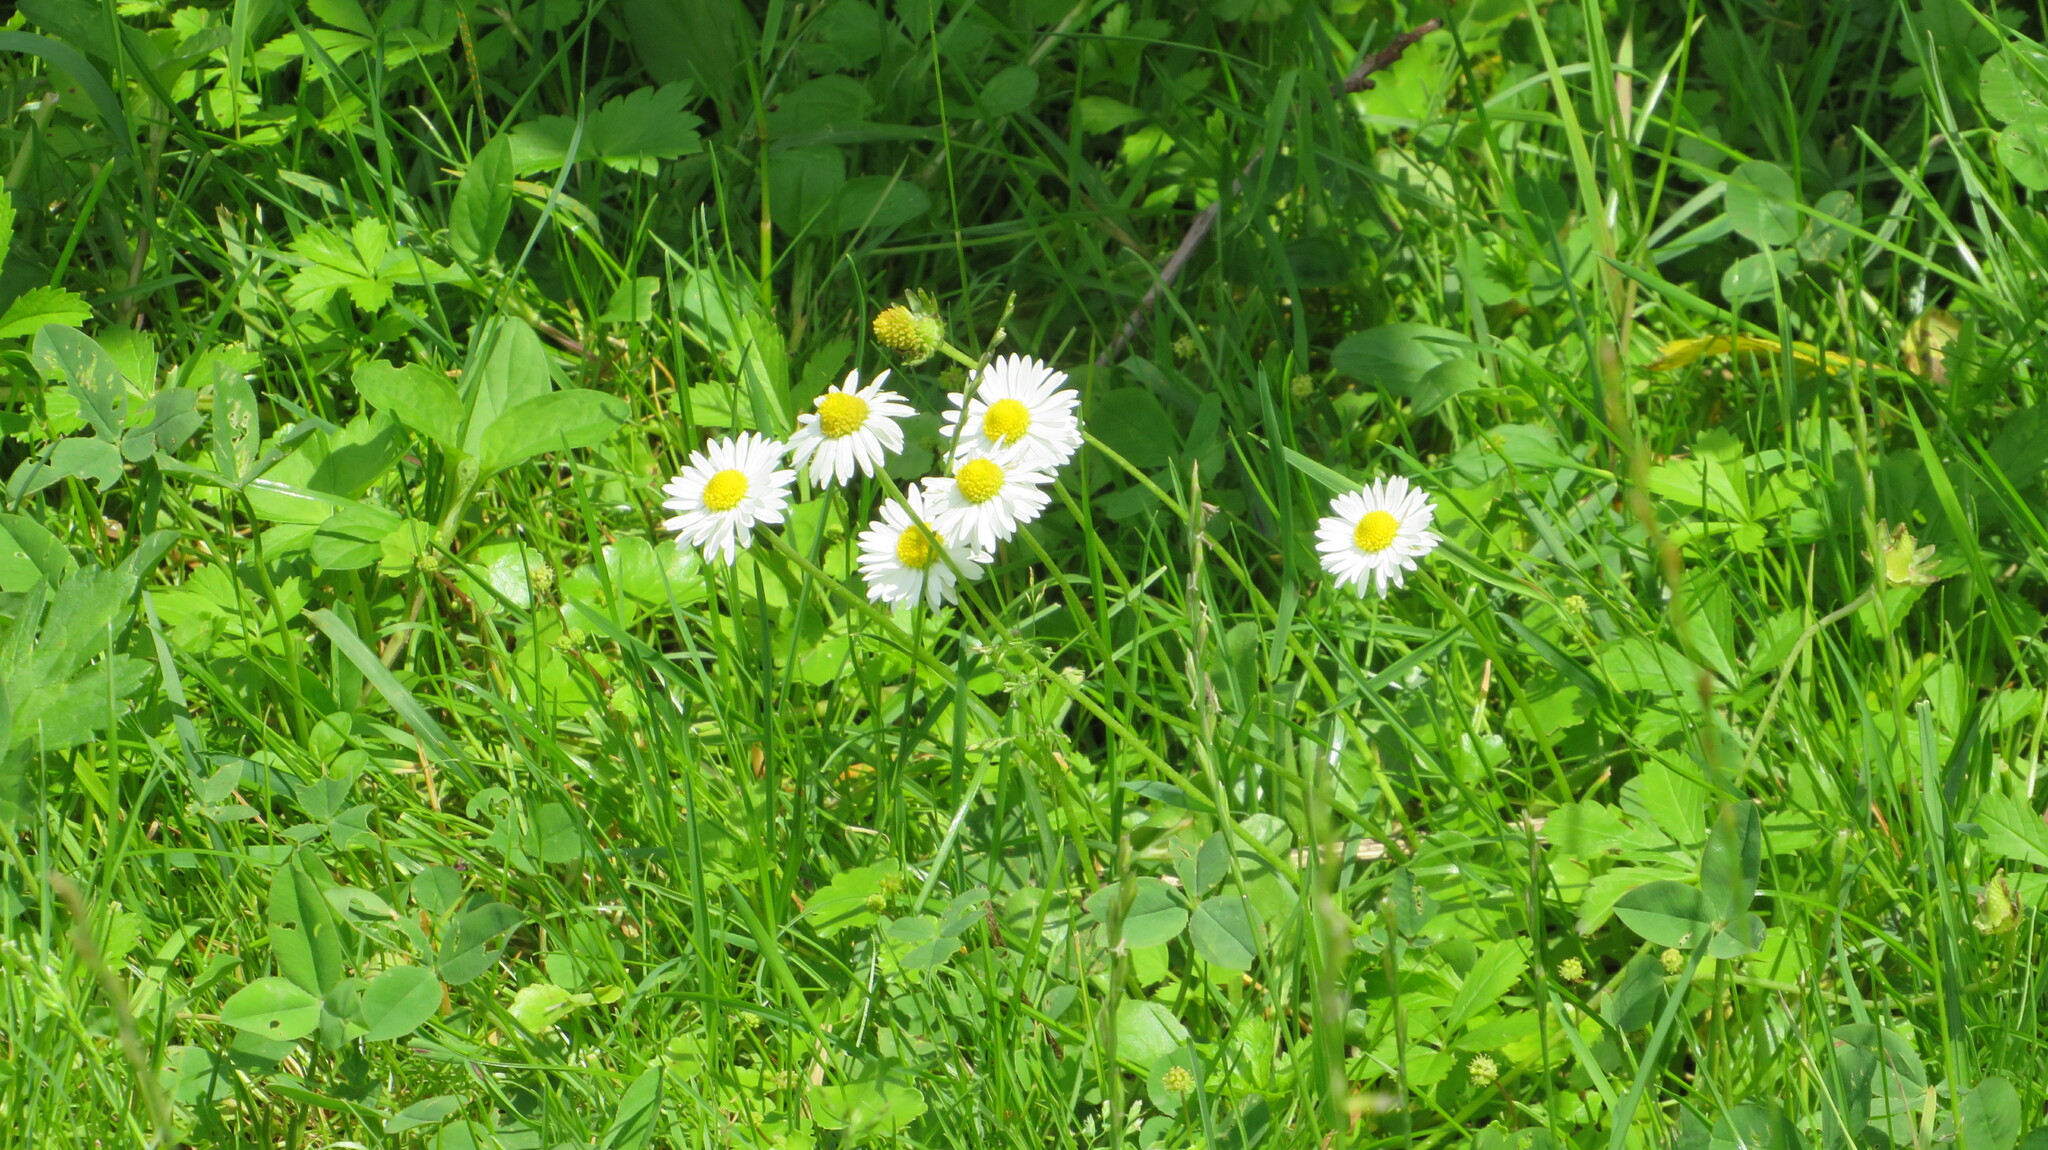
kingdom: Plantae
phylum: Tracheophyta
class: Magnoliopsida
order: Asterales
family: Asteraceae
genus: Bellis
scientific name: Bellis perennis
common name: Lawndaisy
